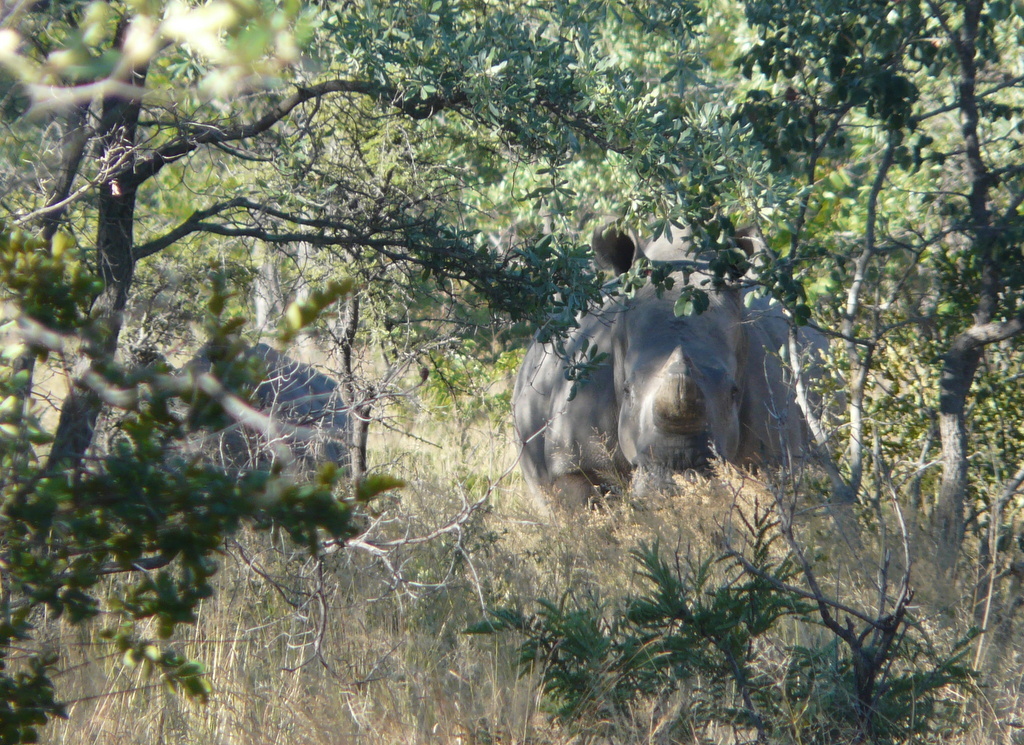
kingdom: Animalia
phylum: Chordata
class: Mammalia
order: Perissodactyla
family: Rhinocerotidae
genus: Ceratotherium
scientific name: Ceratotherium simum
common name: White rhinoceros
